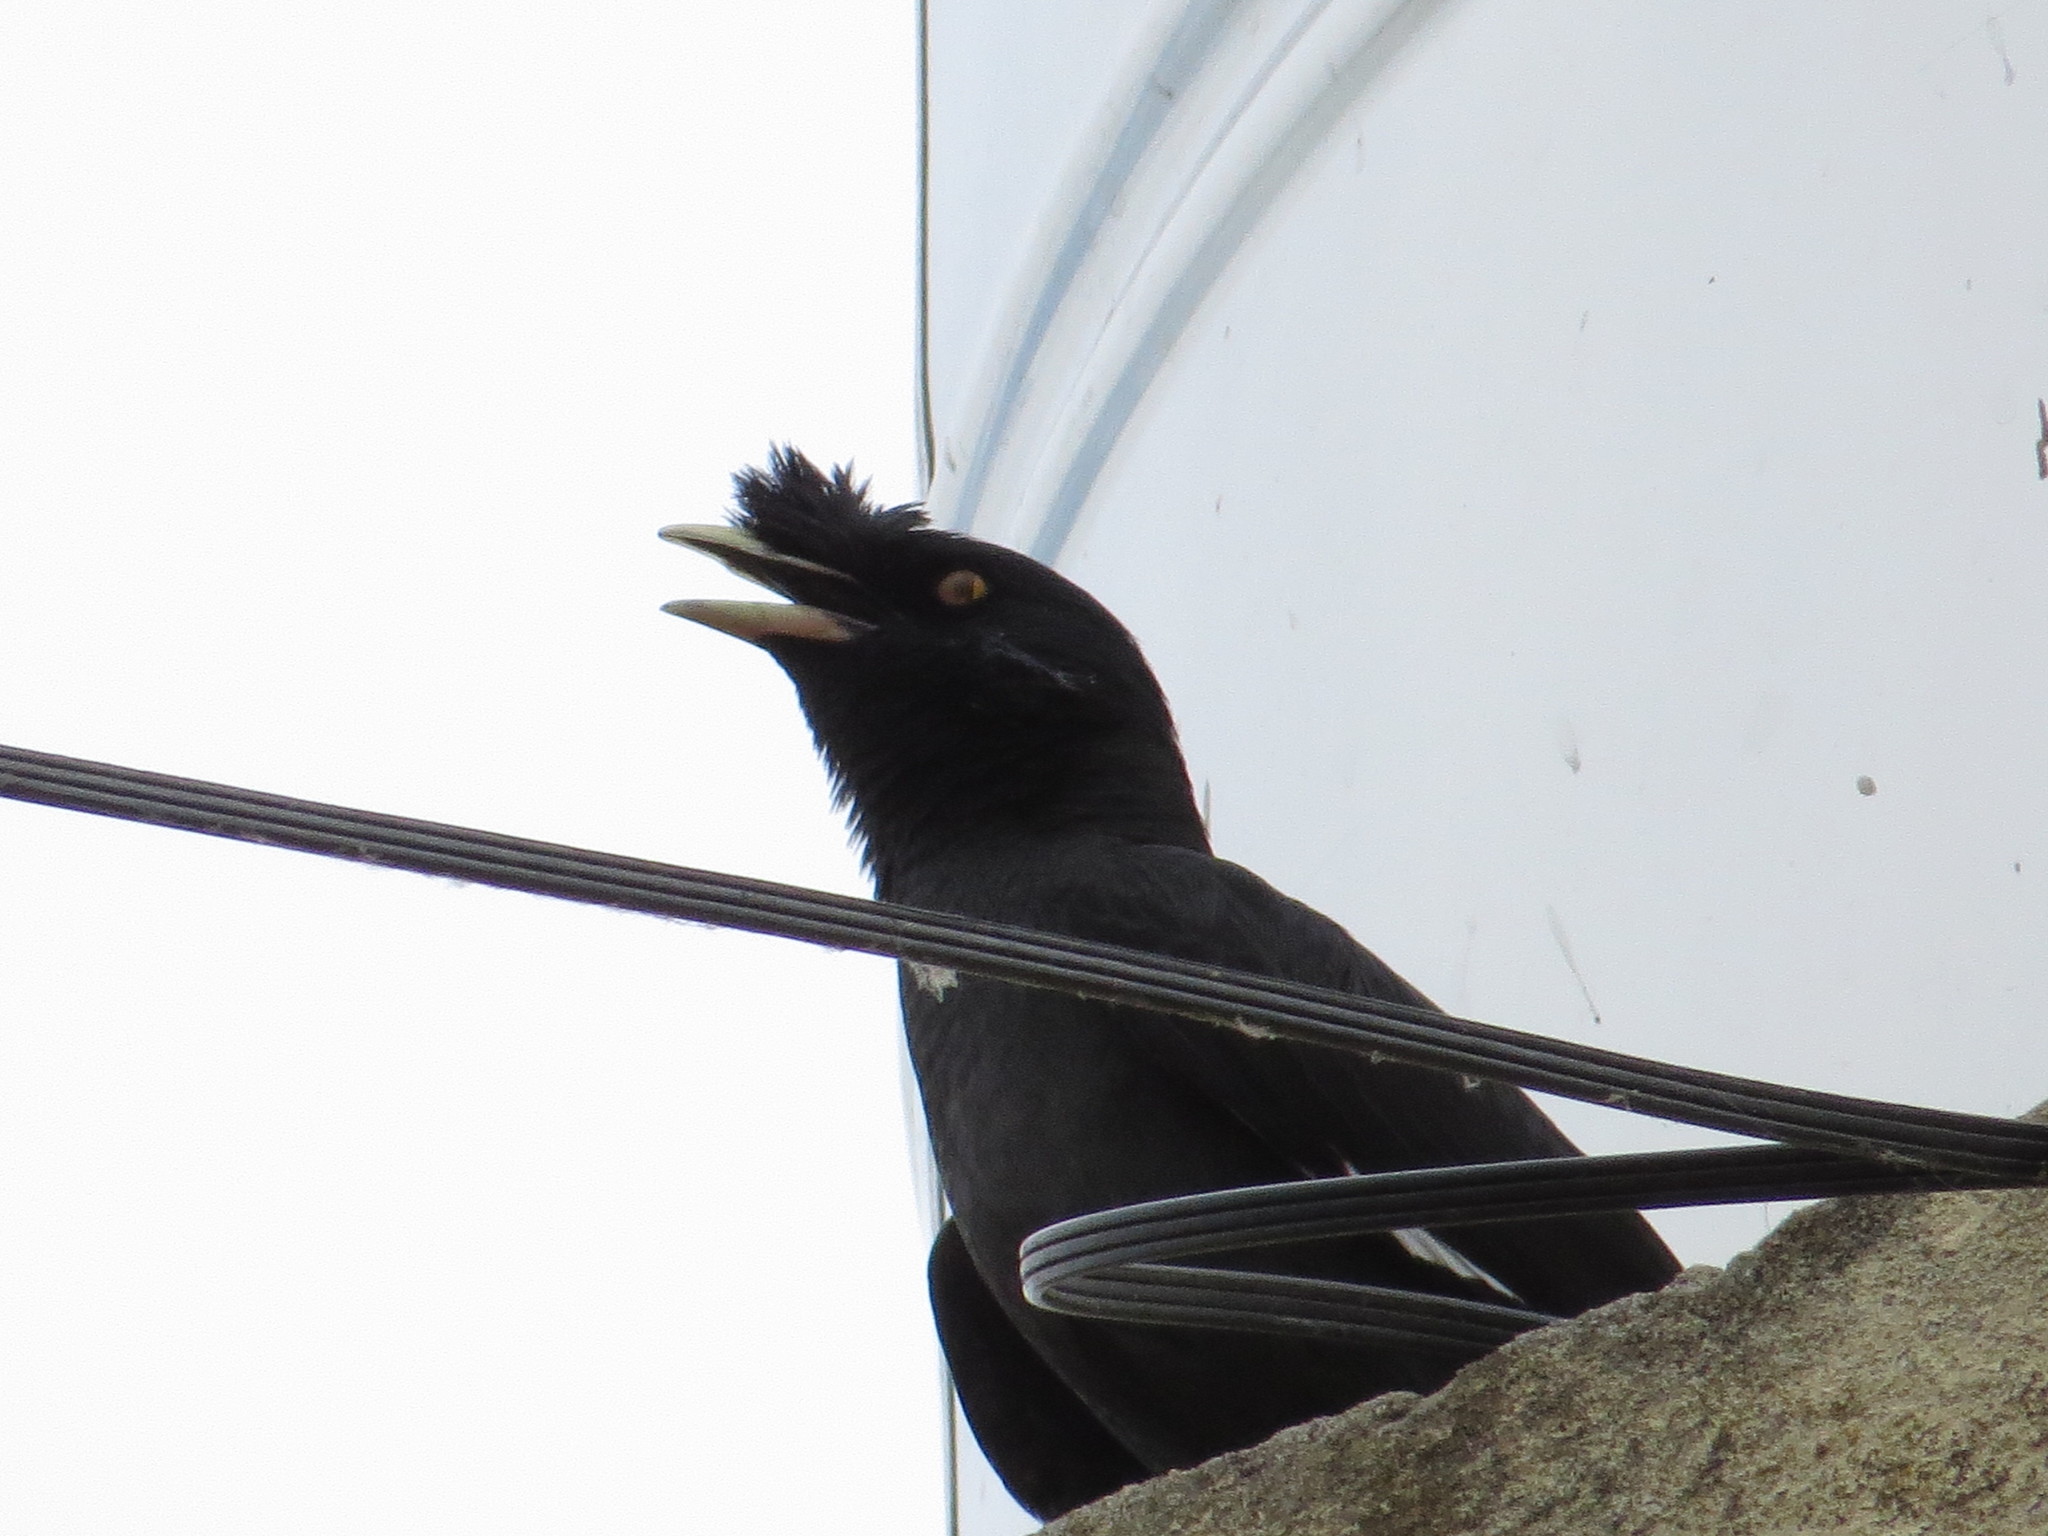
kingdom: Animalia
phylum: Chordata
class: Aves
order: Passeriformes
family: Sturnidae
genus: Acridotheres
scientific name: Acridotheres cristatellus
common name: Crested myna
